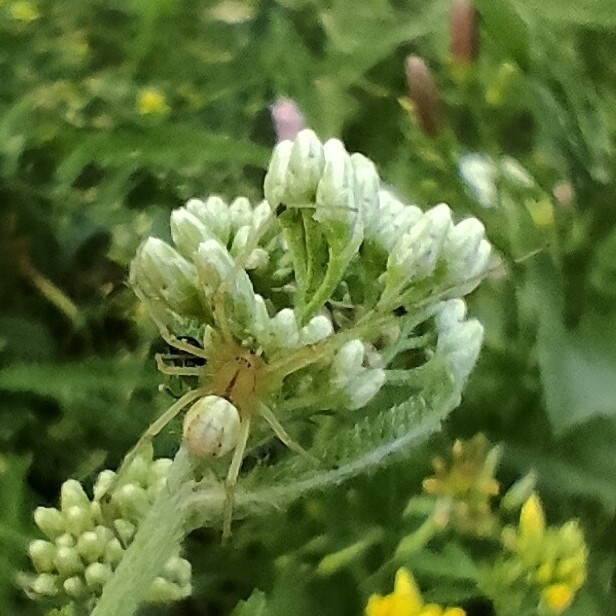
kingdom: Animalia
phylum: Arthropoda
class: Arachnida
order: Araneae
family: Theridiidae
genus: Enoplognatha
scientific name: Enoplognatha ovata
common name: Common candy-striped spider
